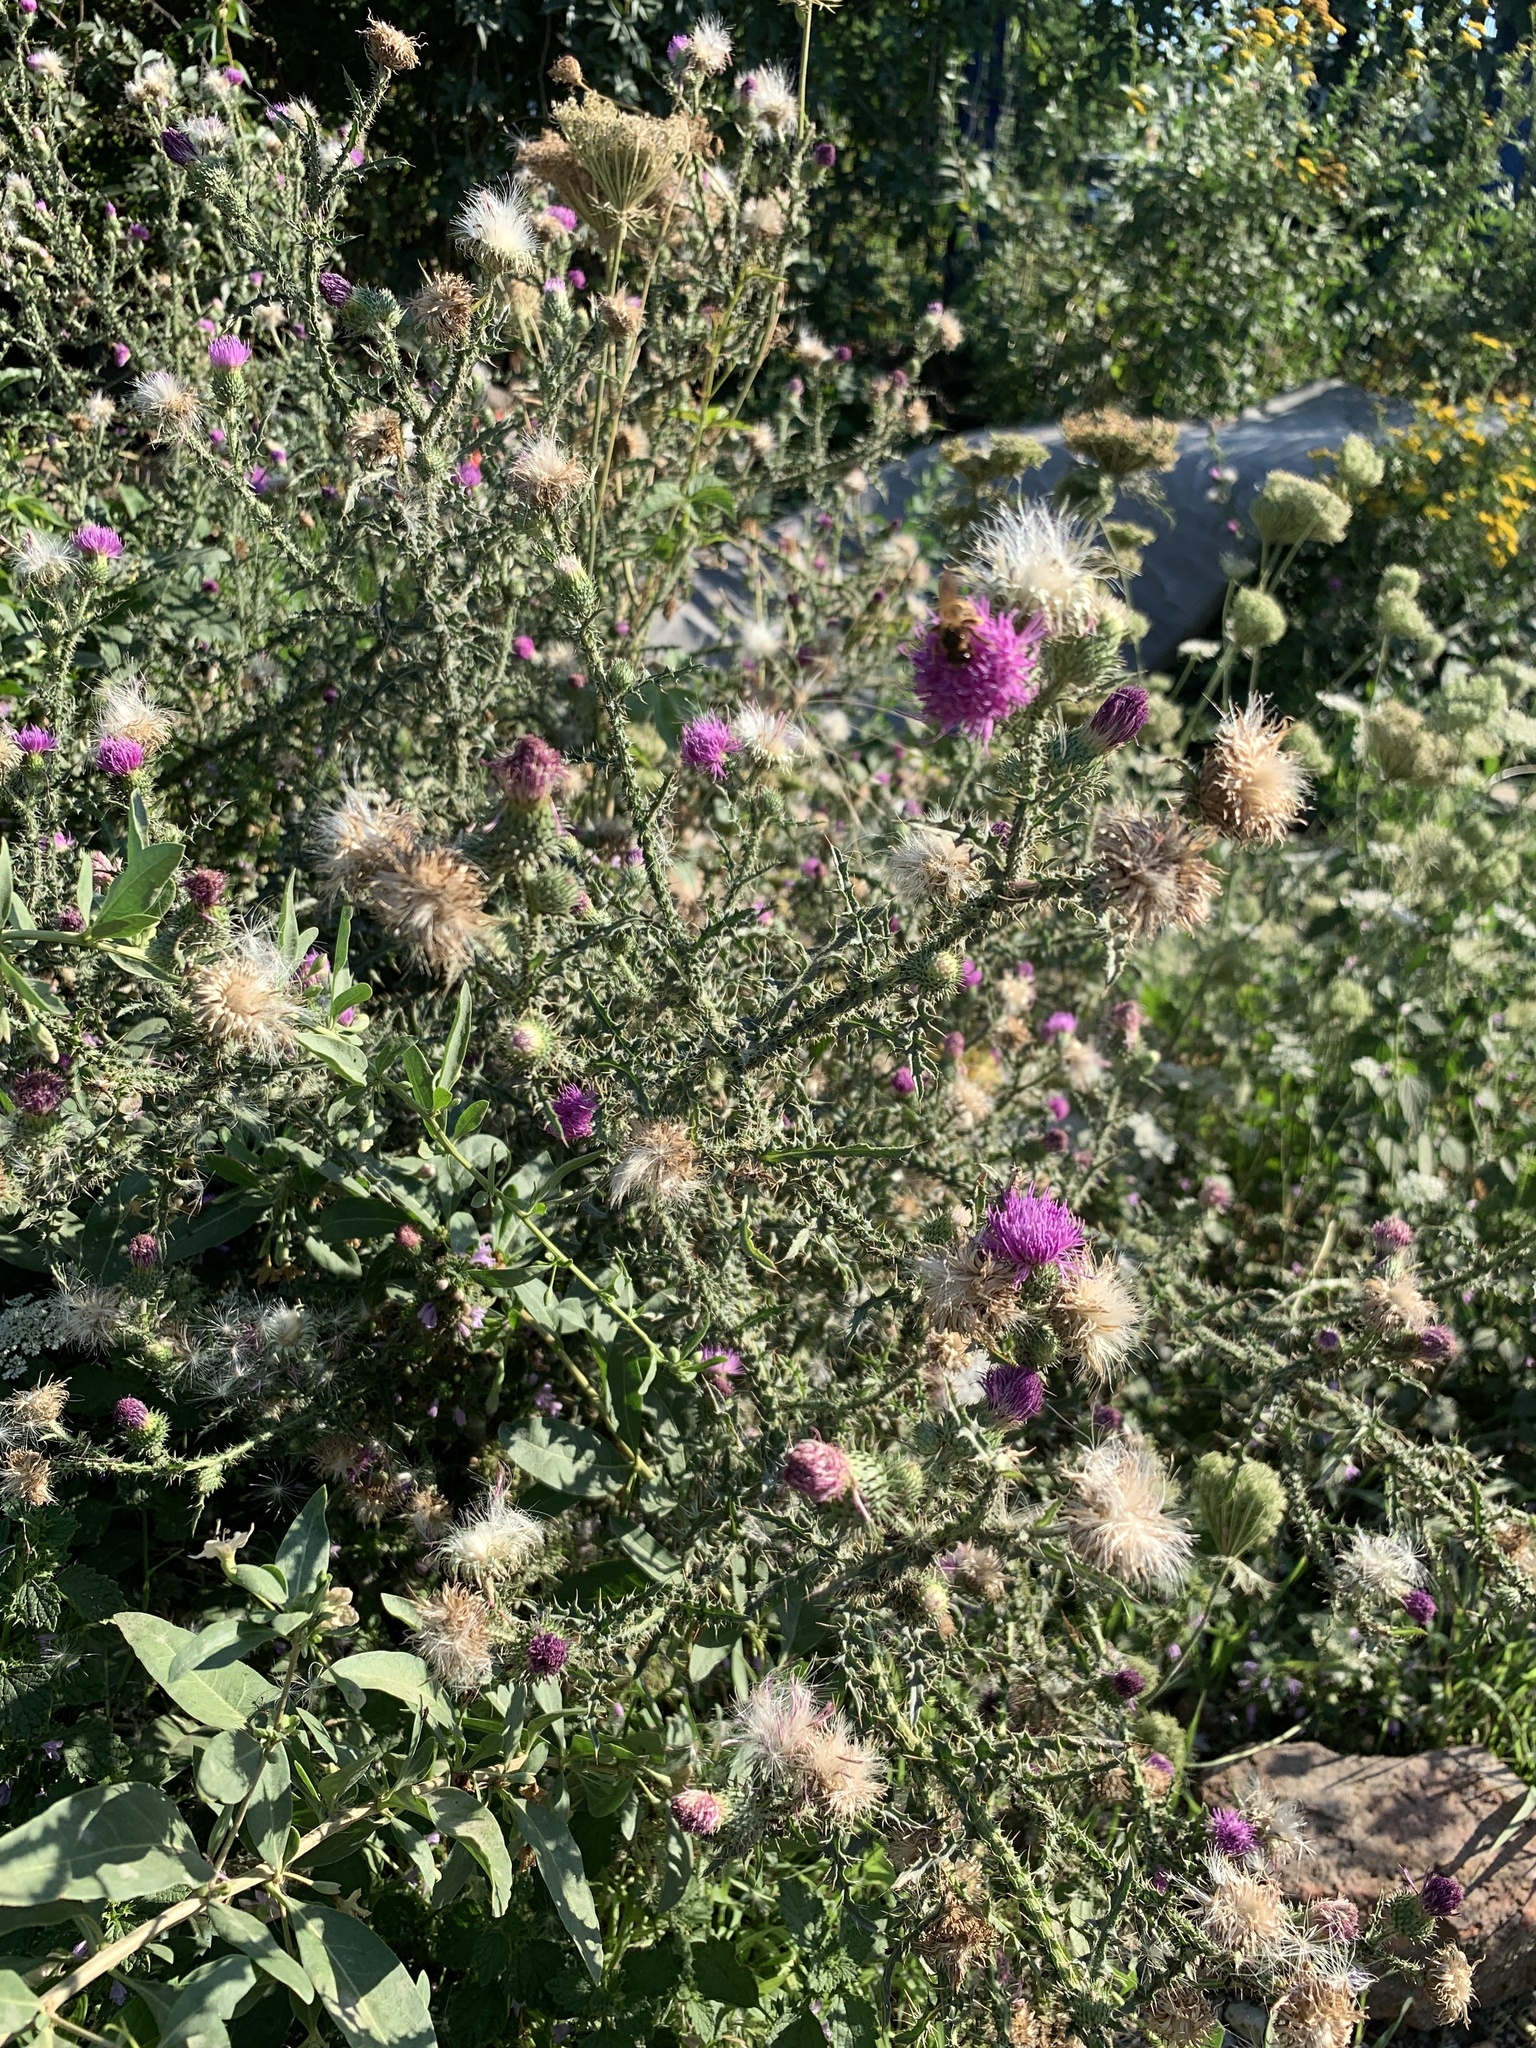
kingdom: Plantae
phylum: Tracheophyta
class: Magnoliopsida
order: Asterales
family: Asteraceae
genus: Carduus
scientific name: Carduus acanthoides
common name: Plumeless thistle
